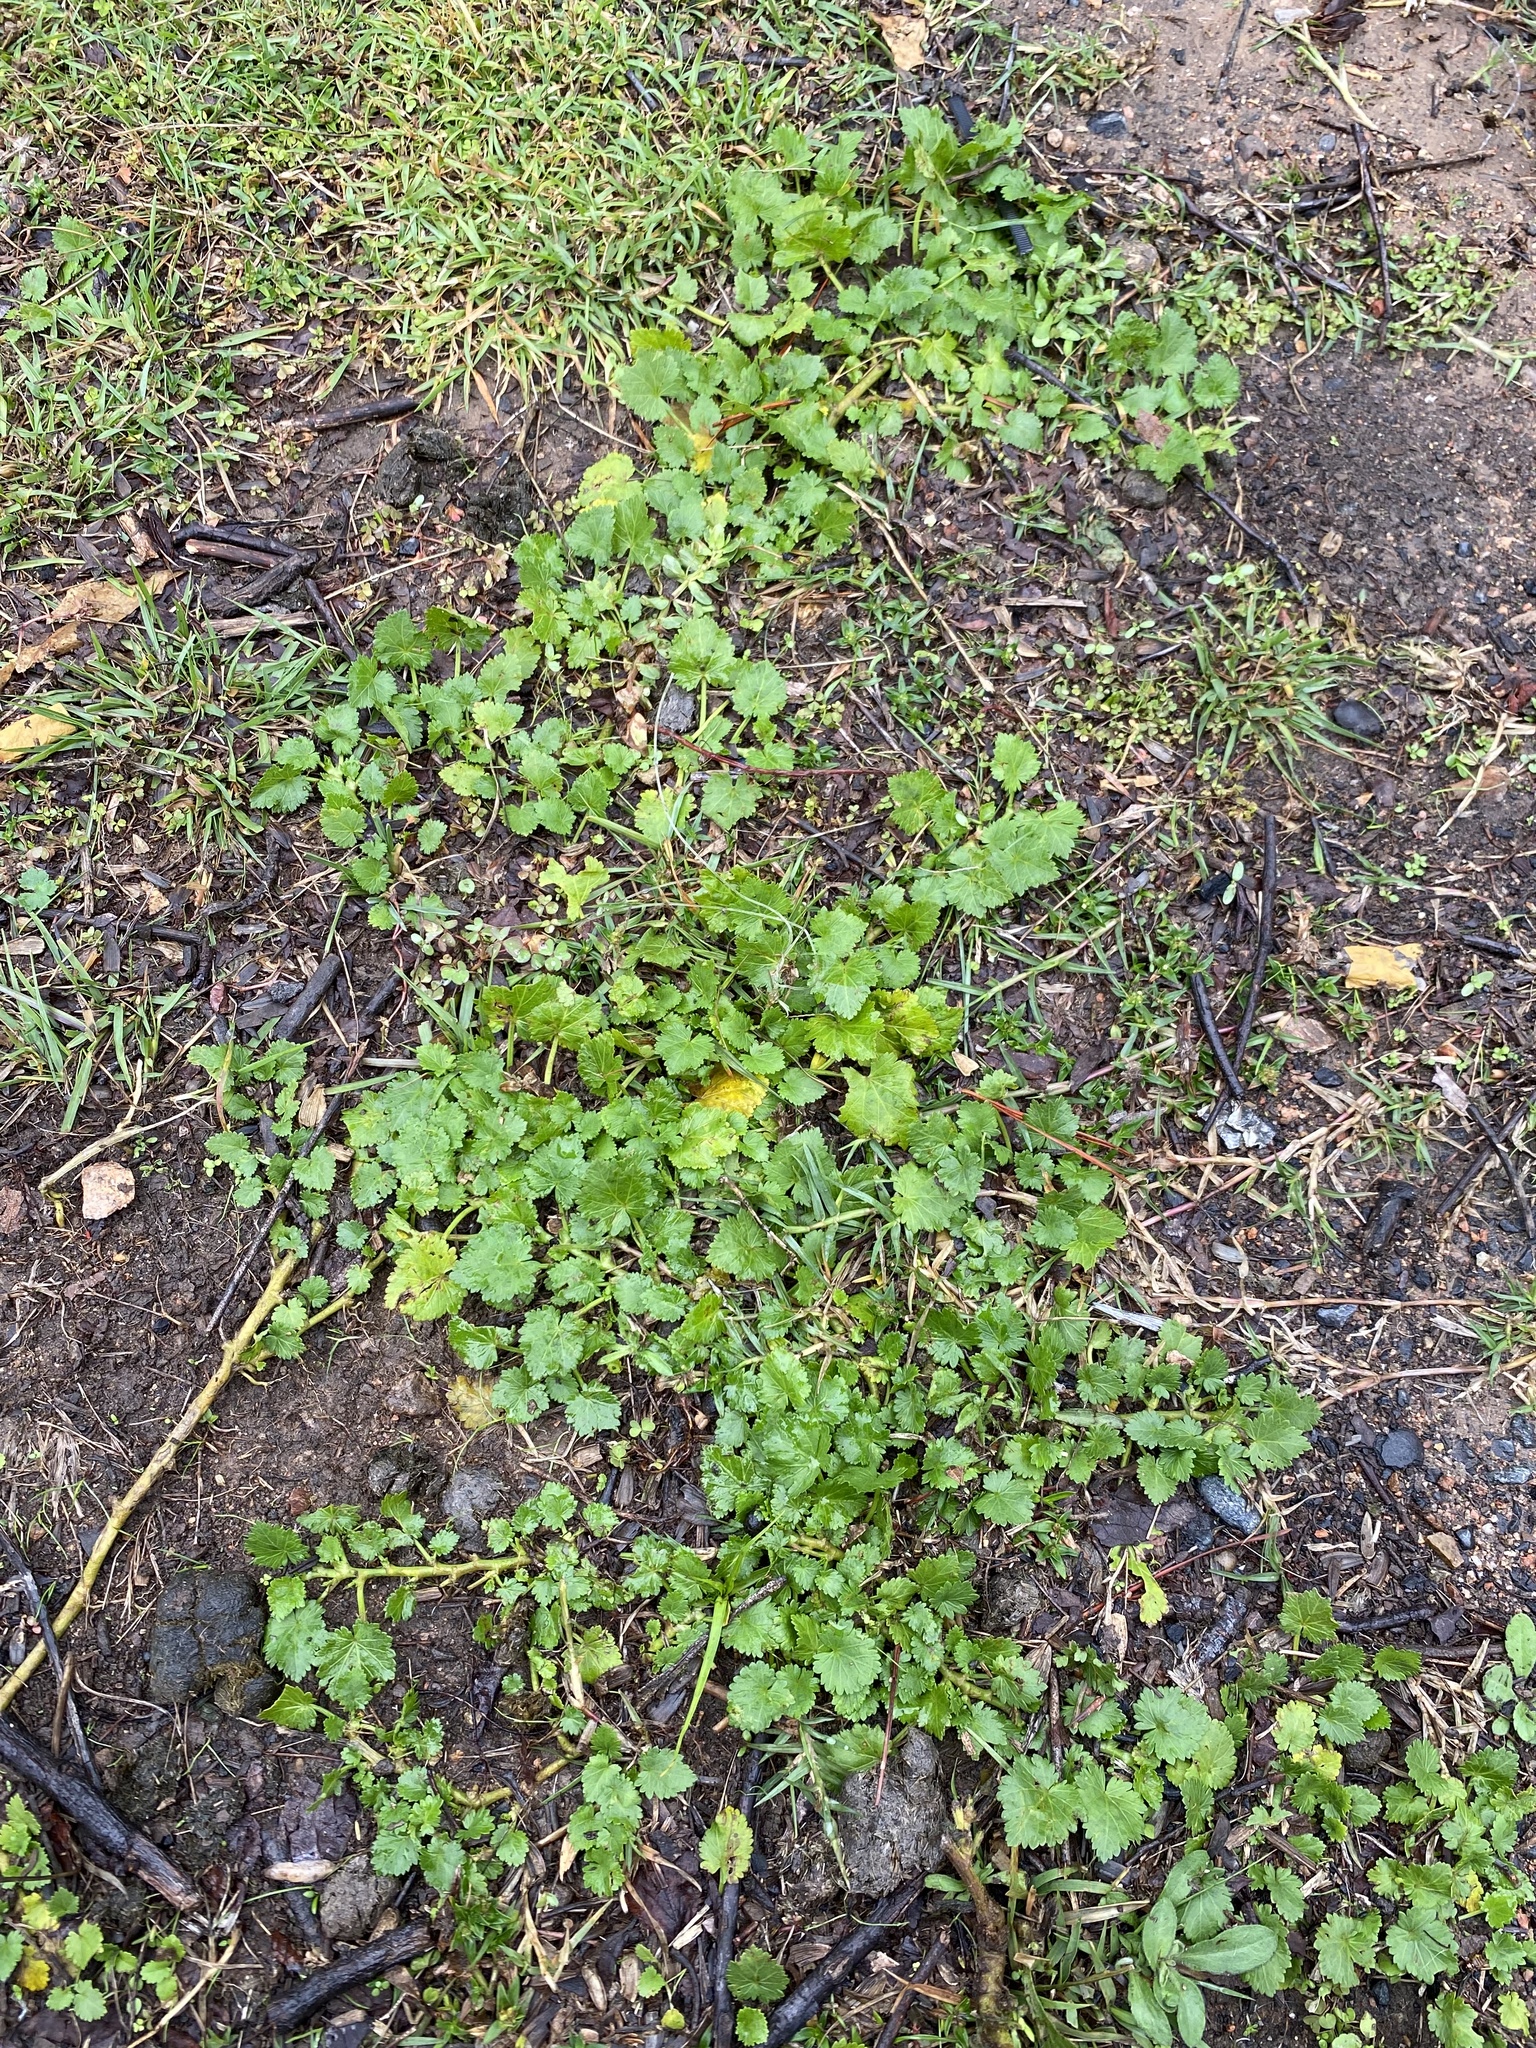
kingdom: Plantae
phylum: Tracheophyta
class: Magnoliopsida
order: Malvales
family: Malvaceae
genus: Modiola
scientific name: Modiola caroliniana
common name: Carolina bristlemallow
